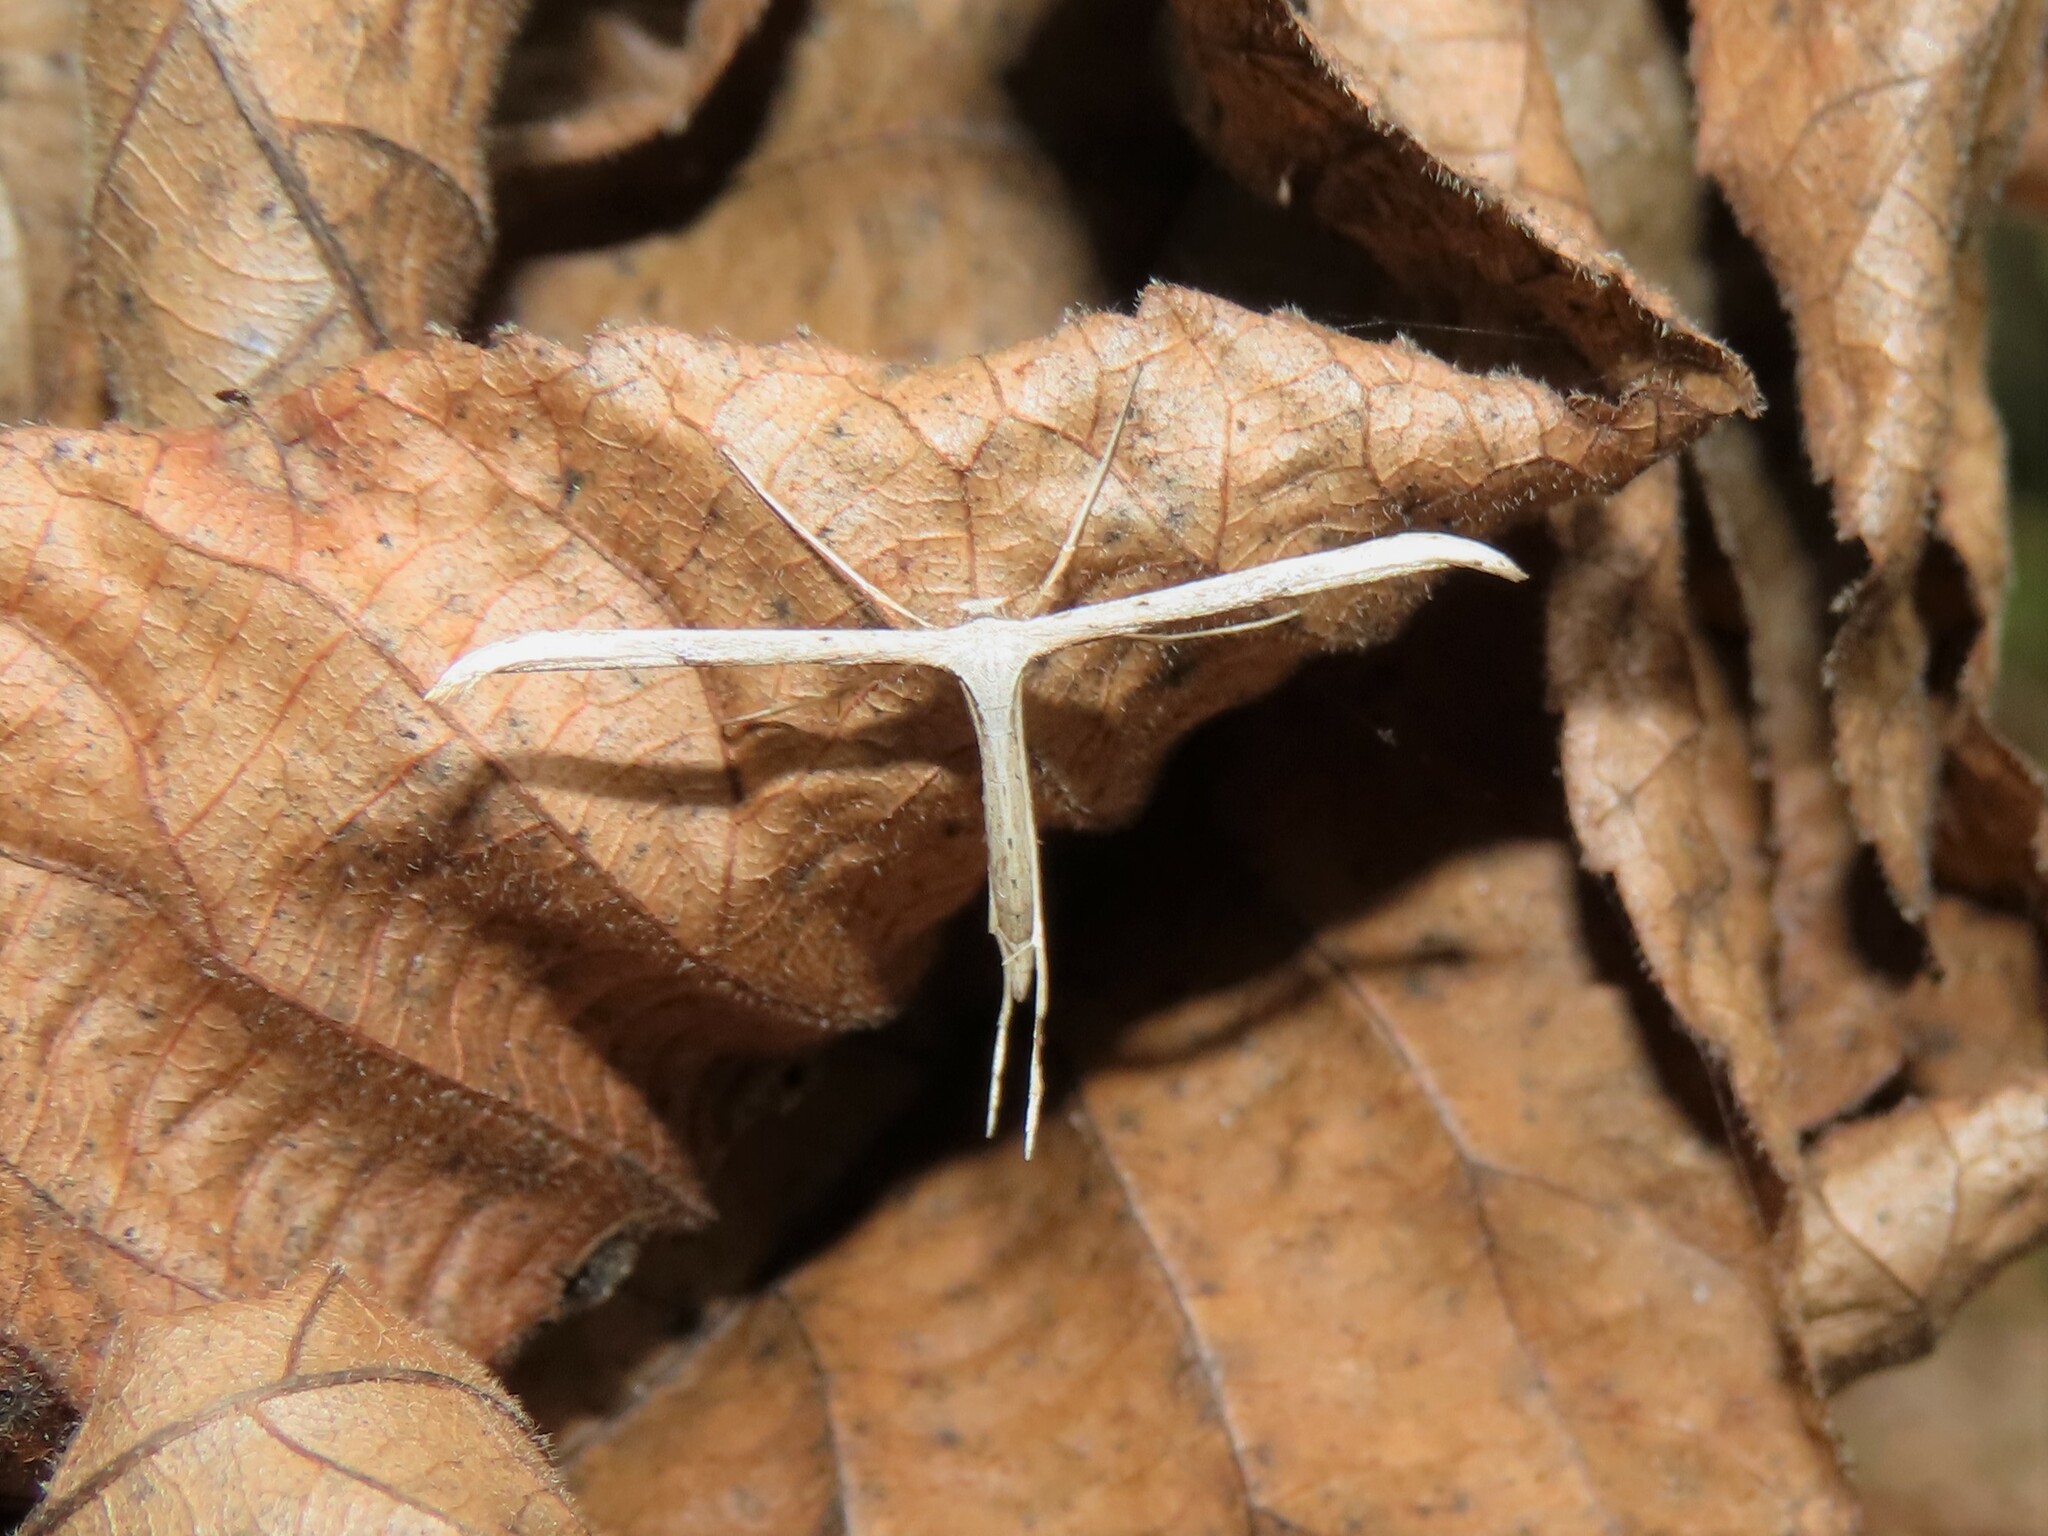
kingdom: Animalia
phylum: Arthropoda
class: Insecta
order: Lepidoptera
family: Pterophoridae
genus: Emmelina
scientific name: Emmelina monodactyla
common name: Common plume
